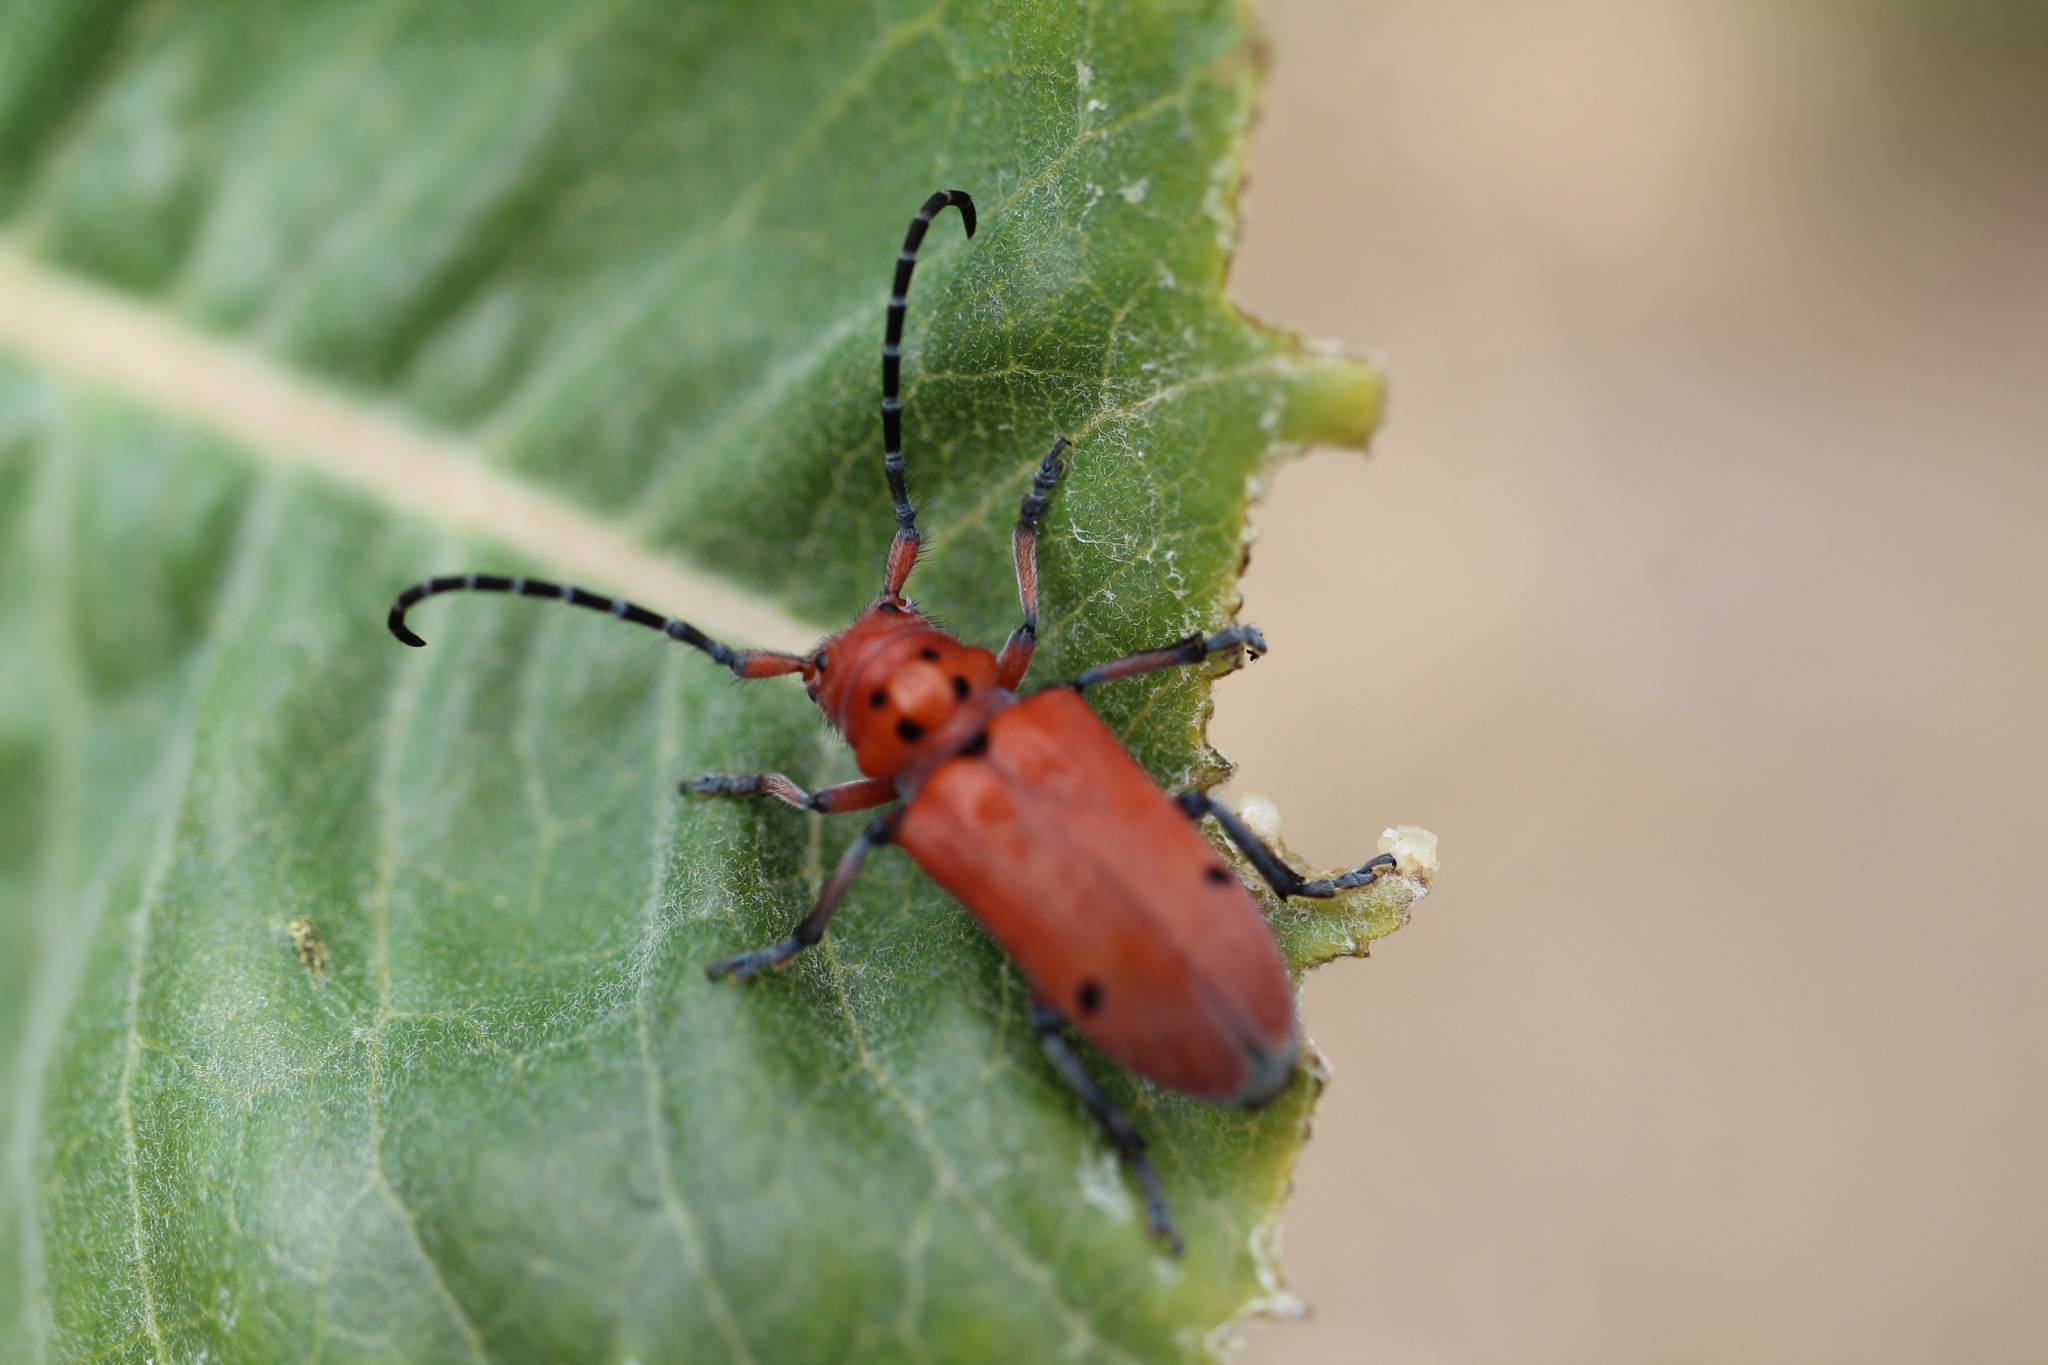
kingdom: Animalia
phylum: Arthropoda
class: Insecta
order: Coleoptera
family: Cerambycidae
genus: Tetraopes
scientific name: Tetraopes femoratus
